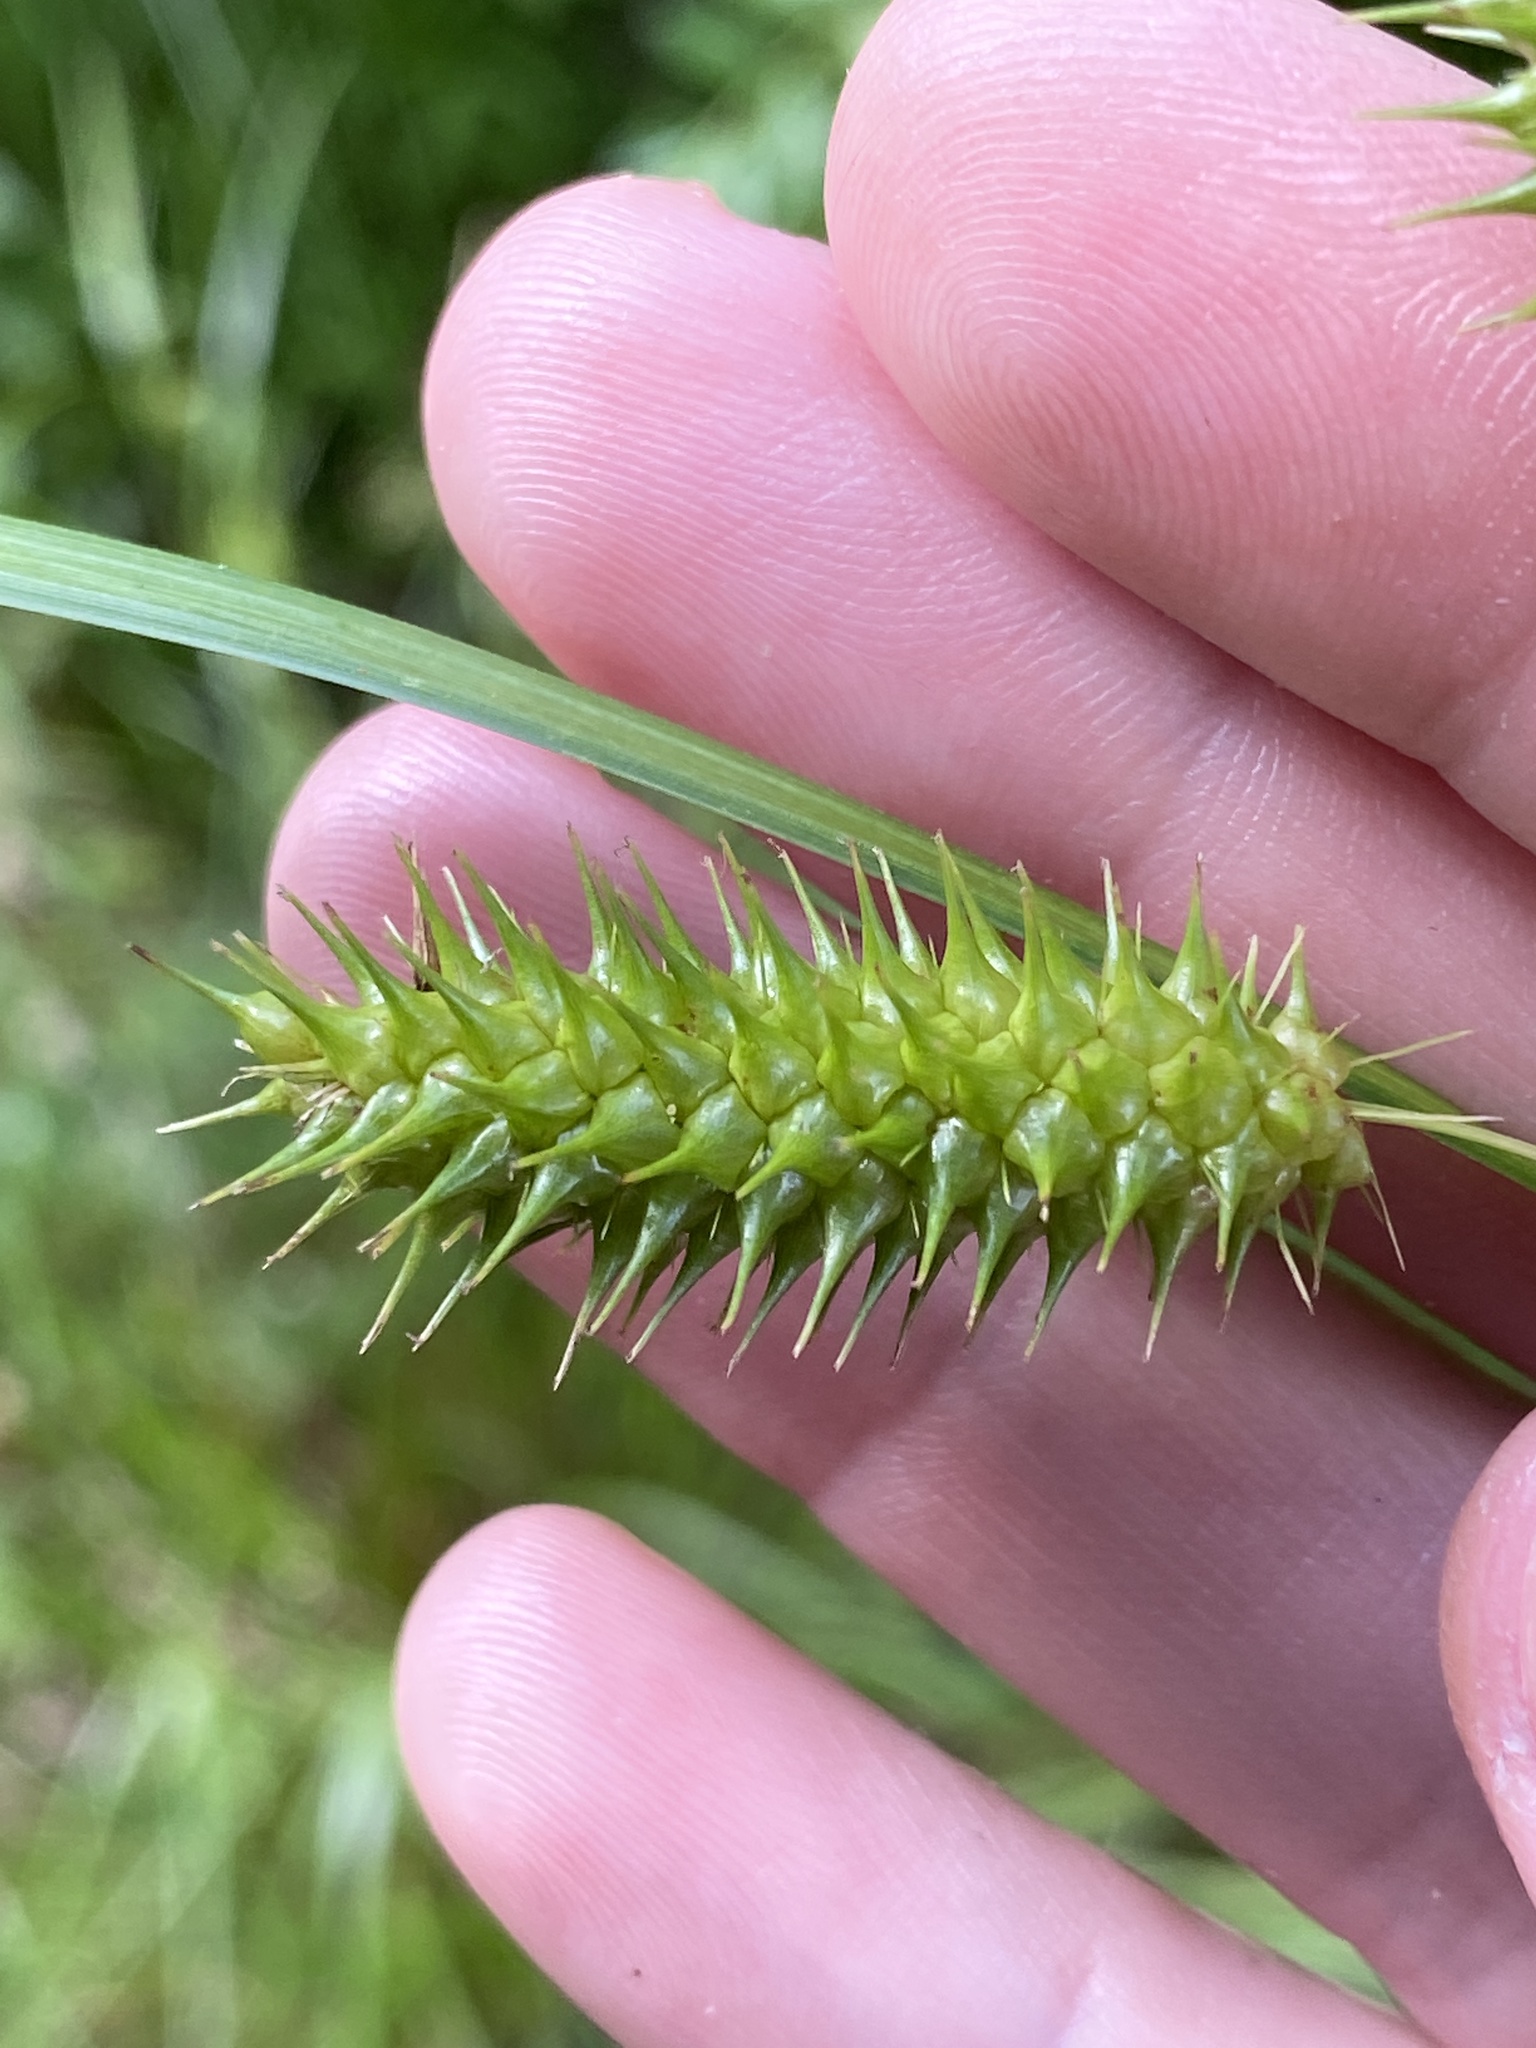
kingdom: Plantae
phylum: Tracheophyta
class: Liliopsida
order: Poales
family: Cyperaceae
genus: Carex
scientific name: Carex lurida
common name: Sallow sedge
